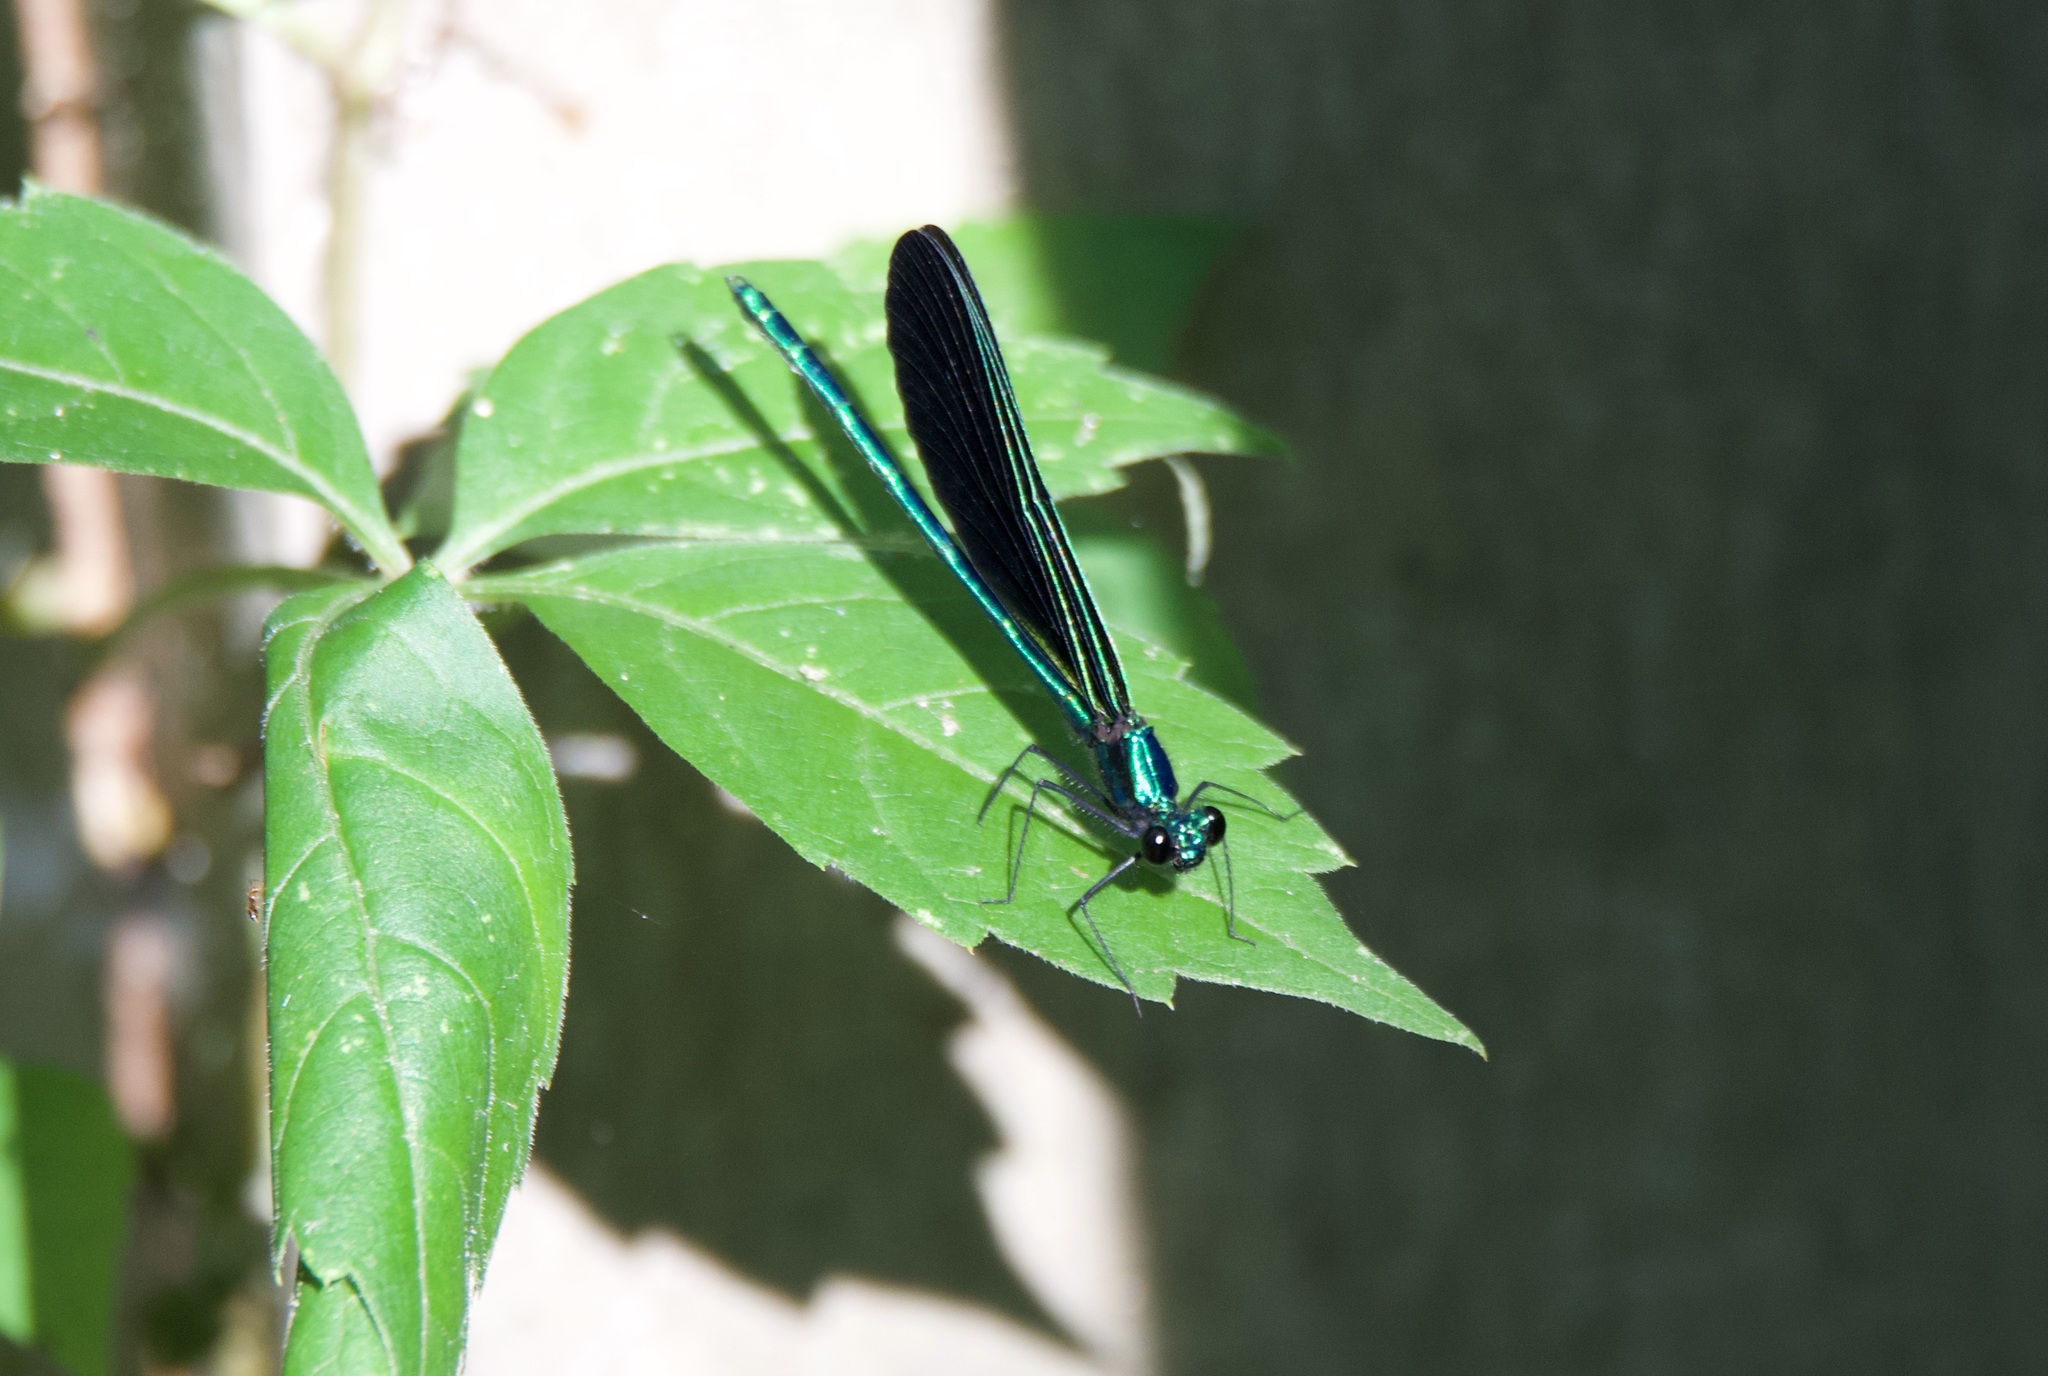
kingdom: Animalia
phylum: Arthropoda
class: Insecta
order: Odonata
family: Calopterygidae
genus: Calopteryx
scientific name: Calopteryx maculata
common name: Ebony jewelwing
